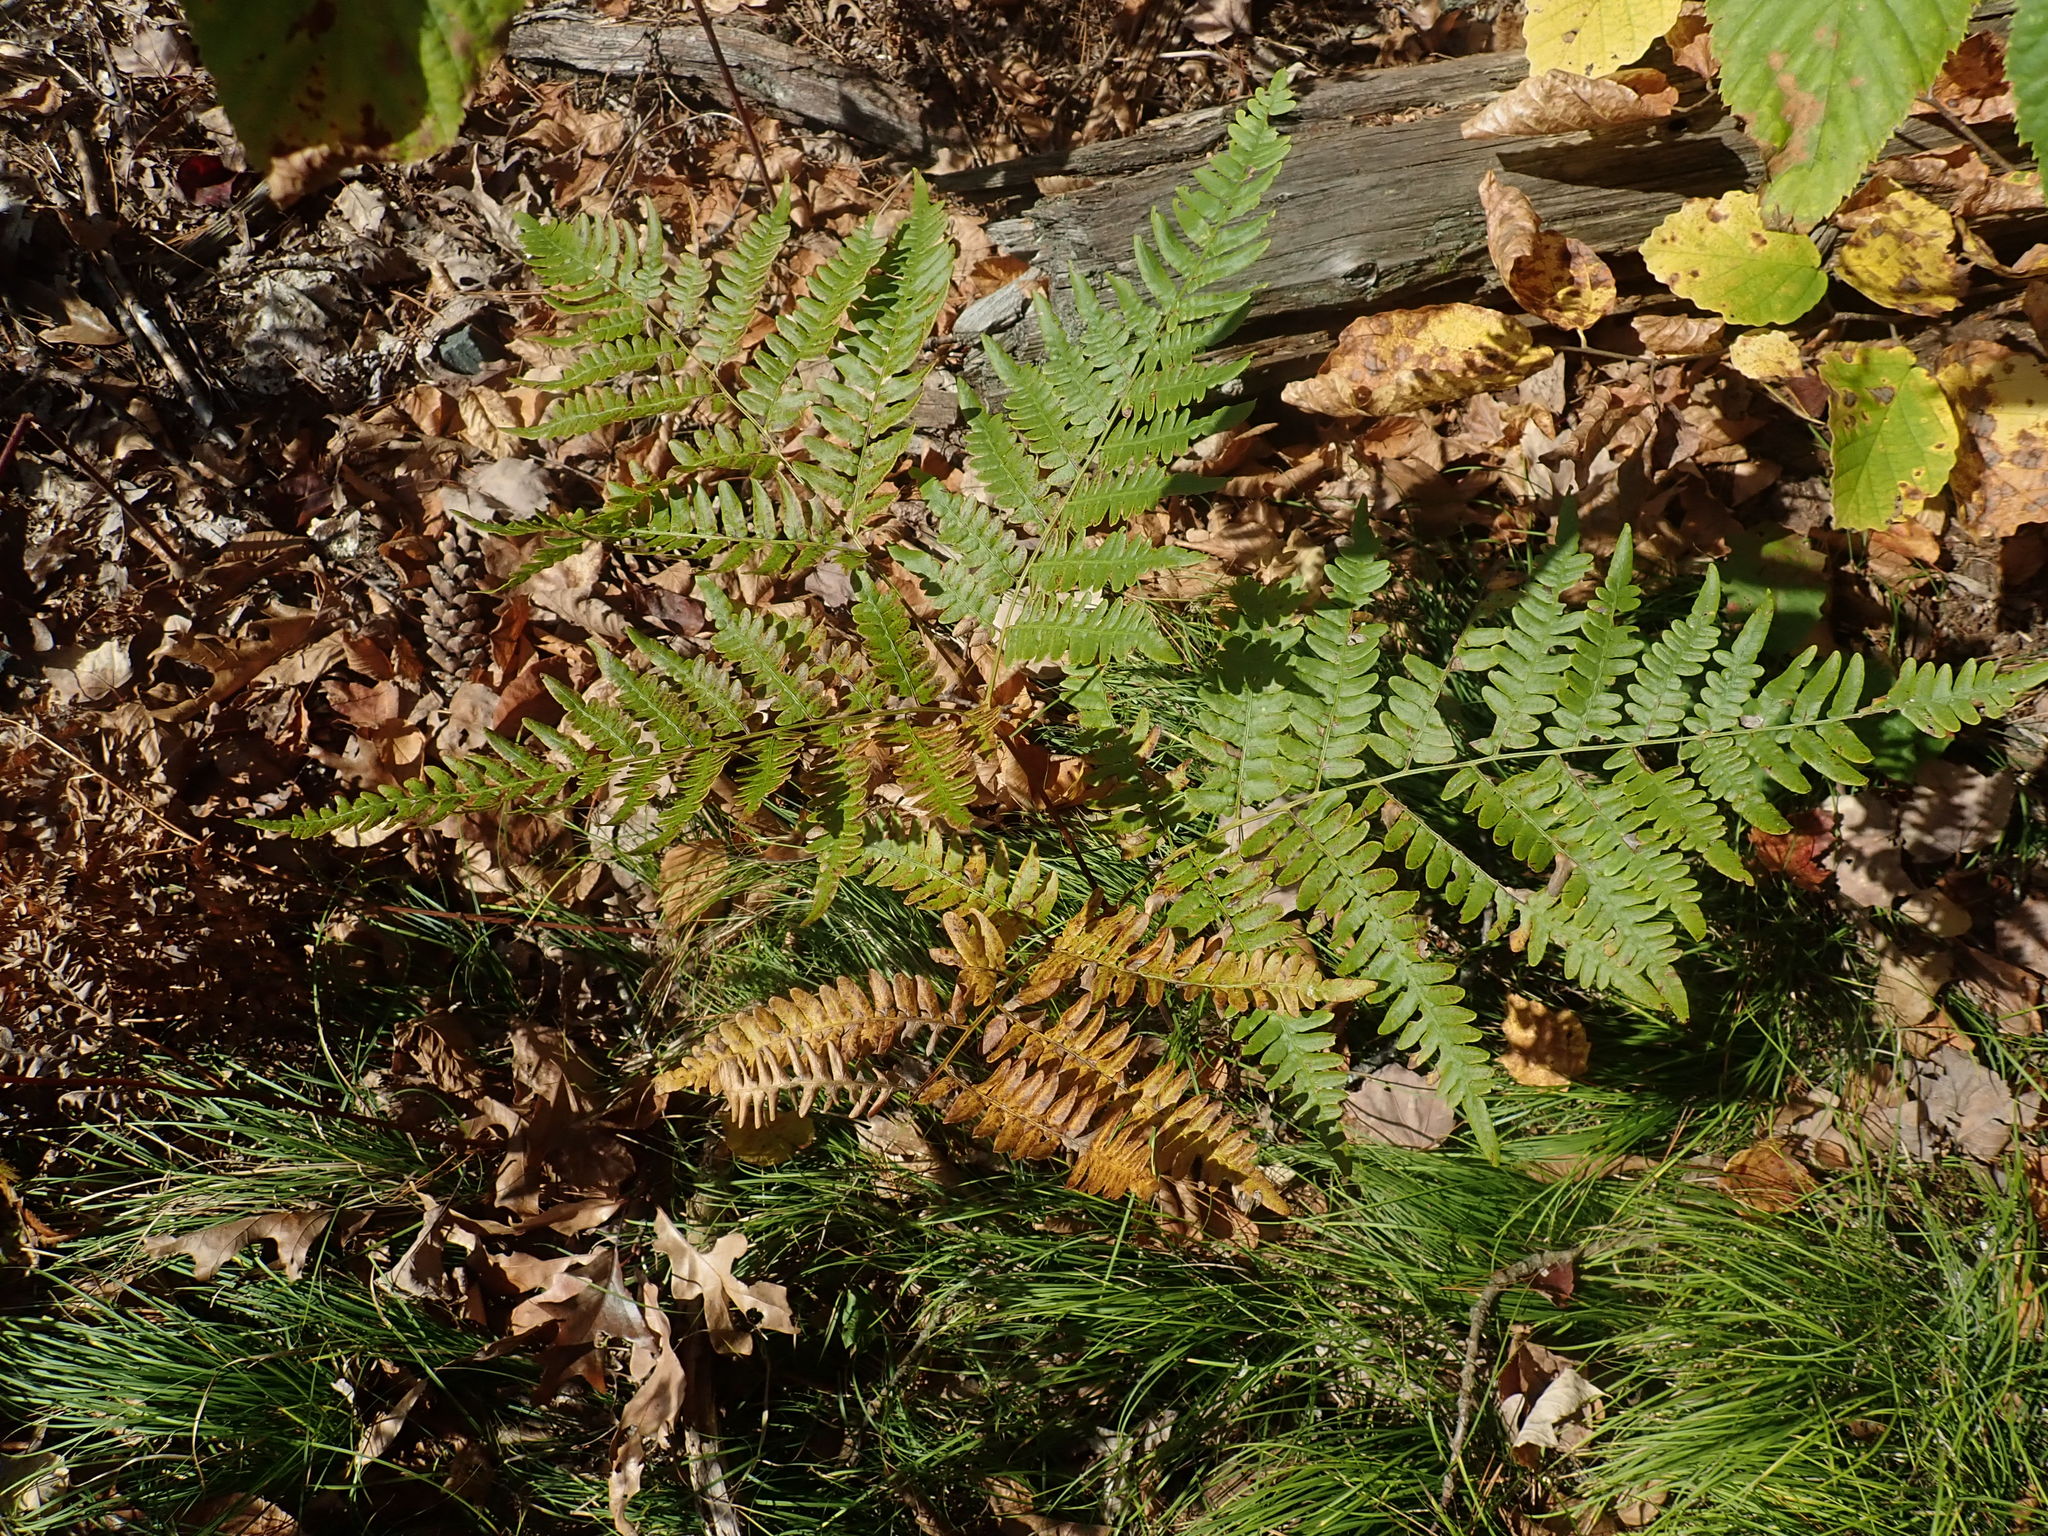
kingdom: Plantae
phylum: Tracheophyta
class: Polypodiopsida
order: Polypodiales
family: Dennstaedtiaceae
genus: Pteridium
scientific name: Pteridium aquilinum
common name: Bracken
